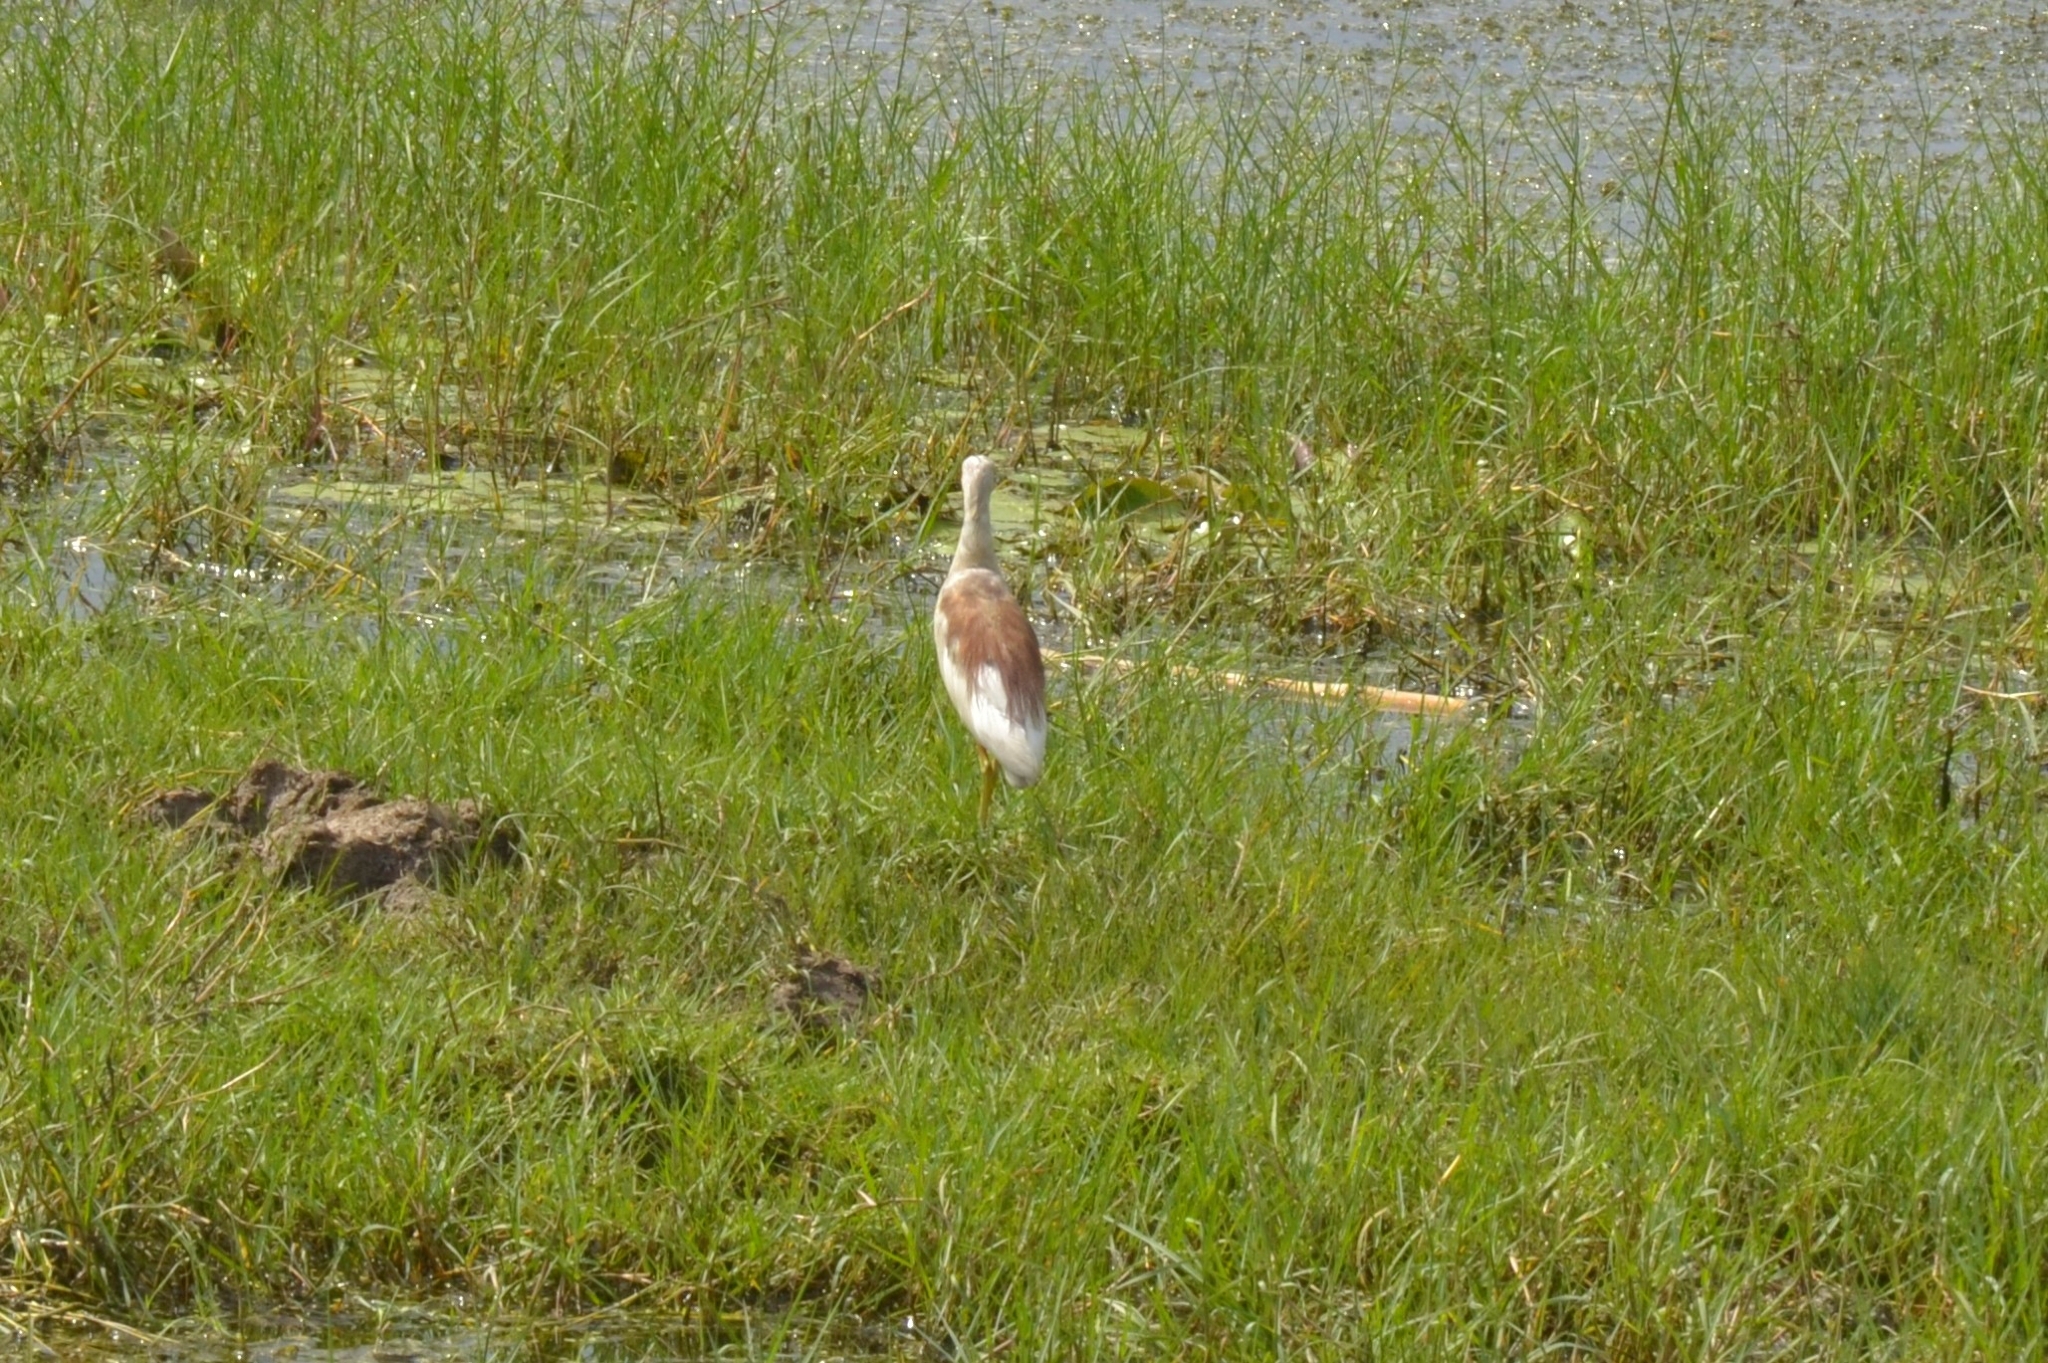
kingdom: Animalia
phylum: Chordata
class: Aves
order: Pelecaniformes
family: Ardeidae
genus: Ardeola
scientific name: Ardeola grayii
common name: Indian pond heron
